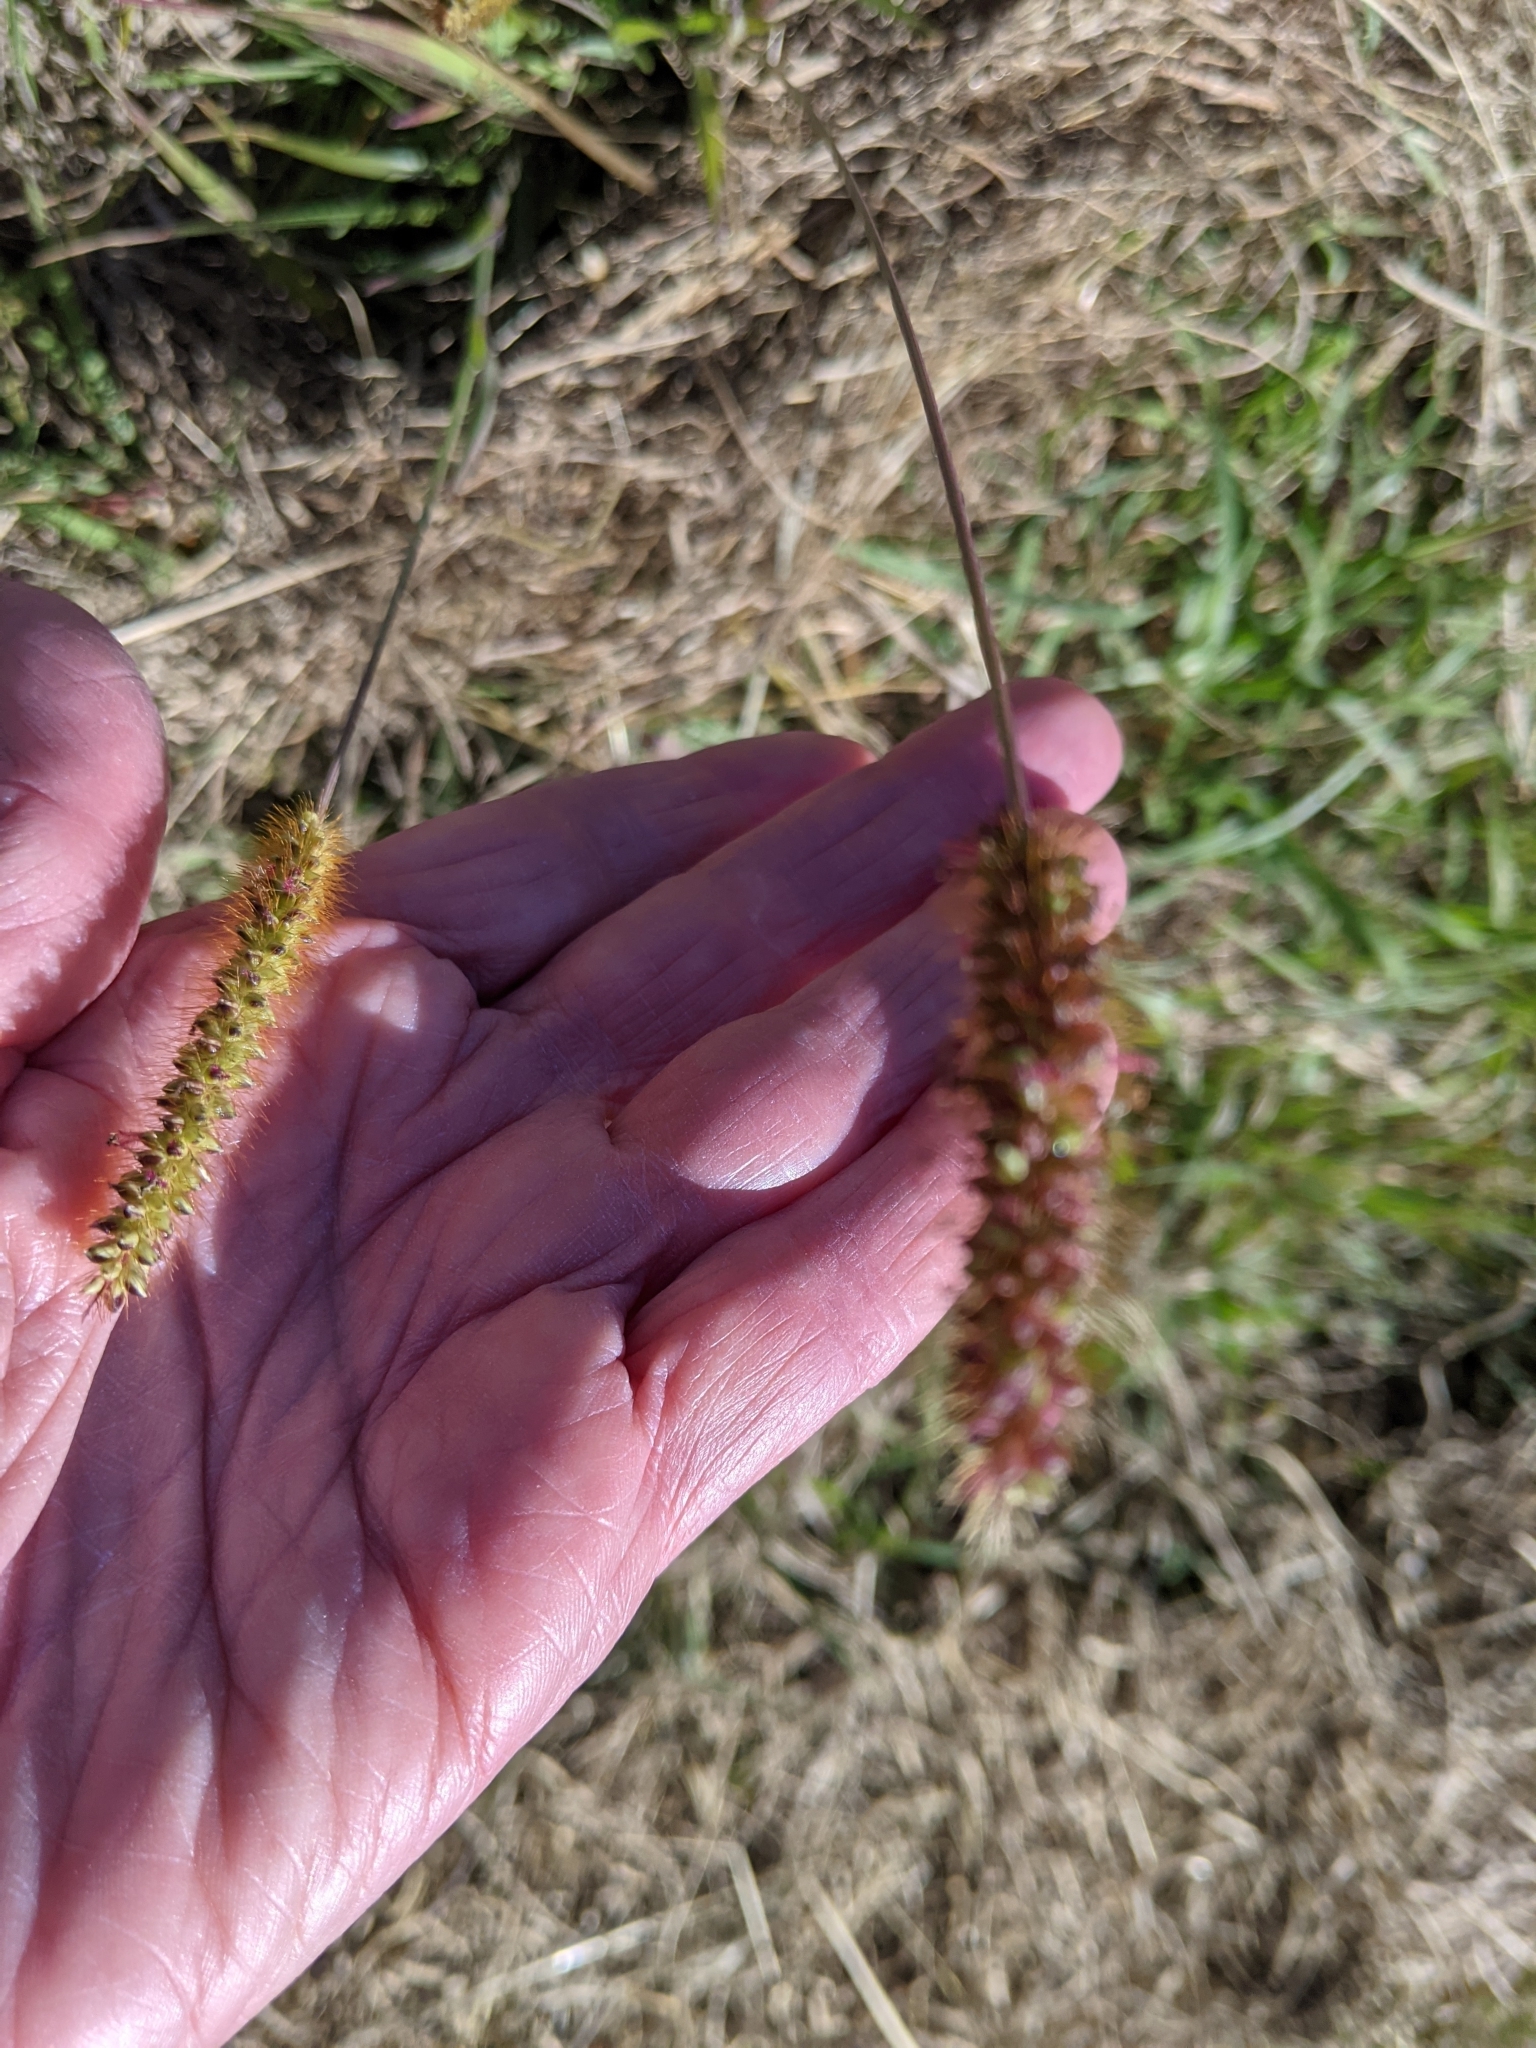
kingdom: Plantae
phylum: Tracheophyta
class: Liliopsida
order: Poales
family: Poaceae
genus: Setaria
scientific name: Setaria pumila
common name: Yellow bristle-grass
